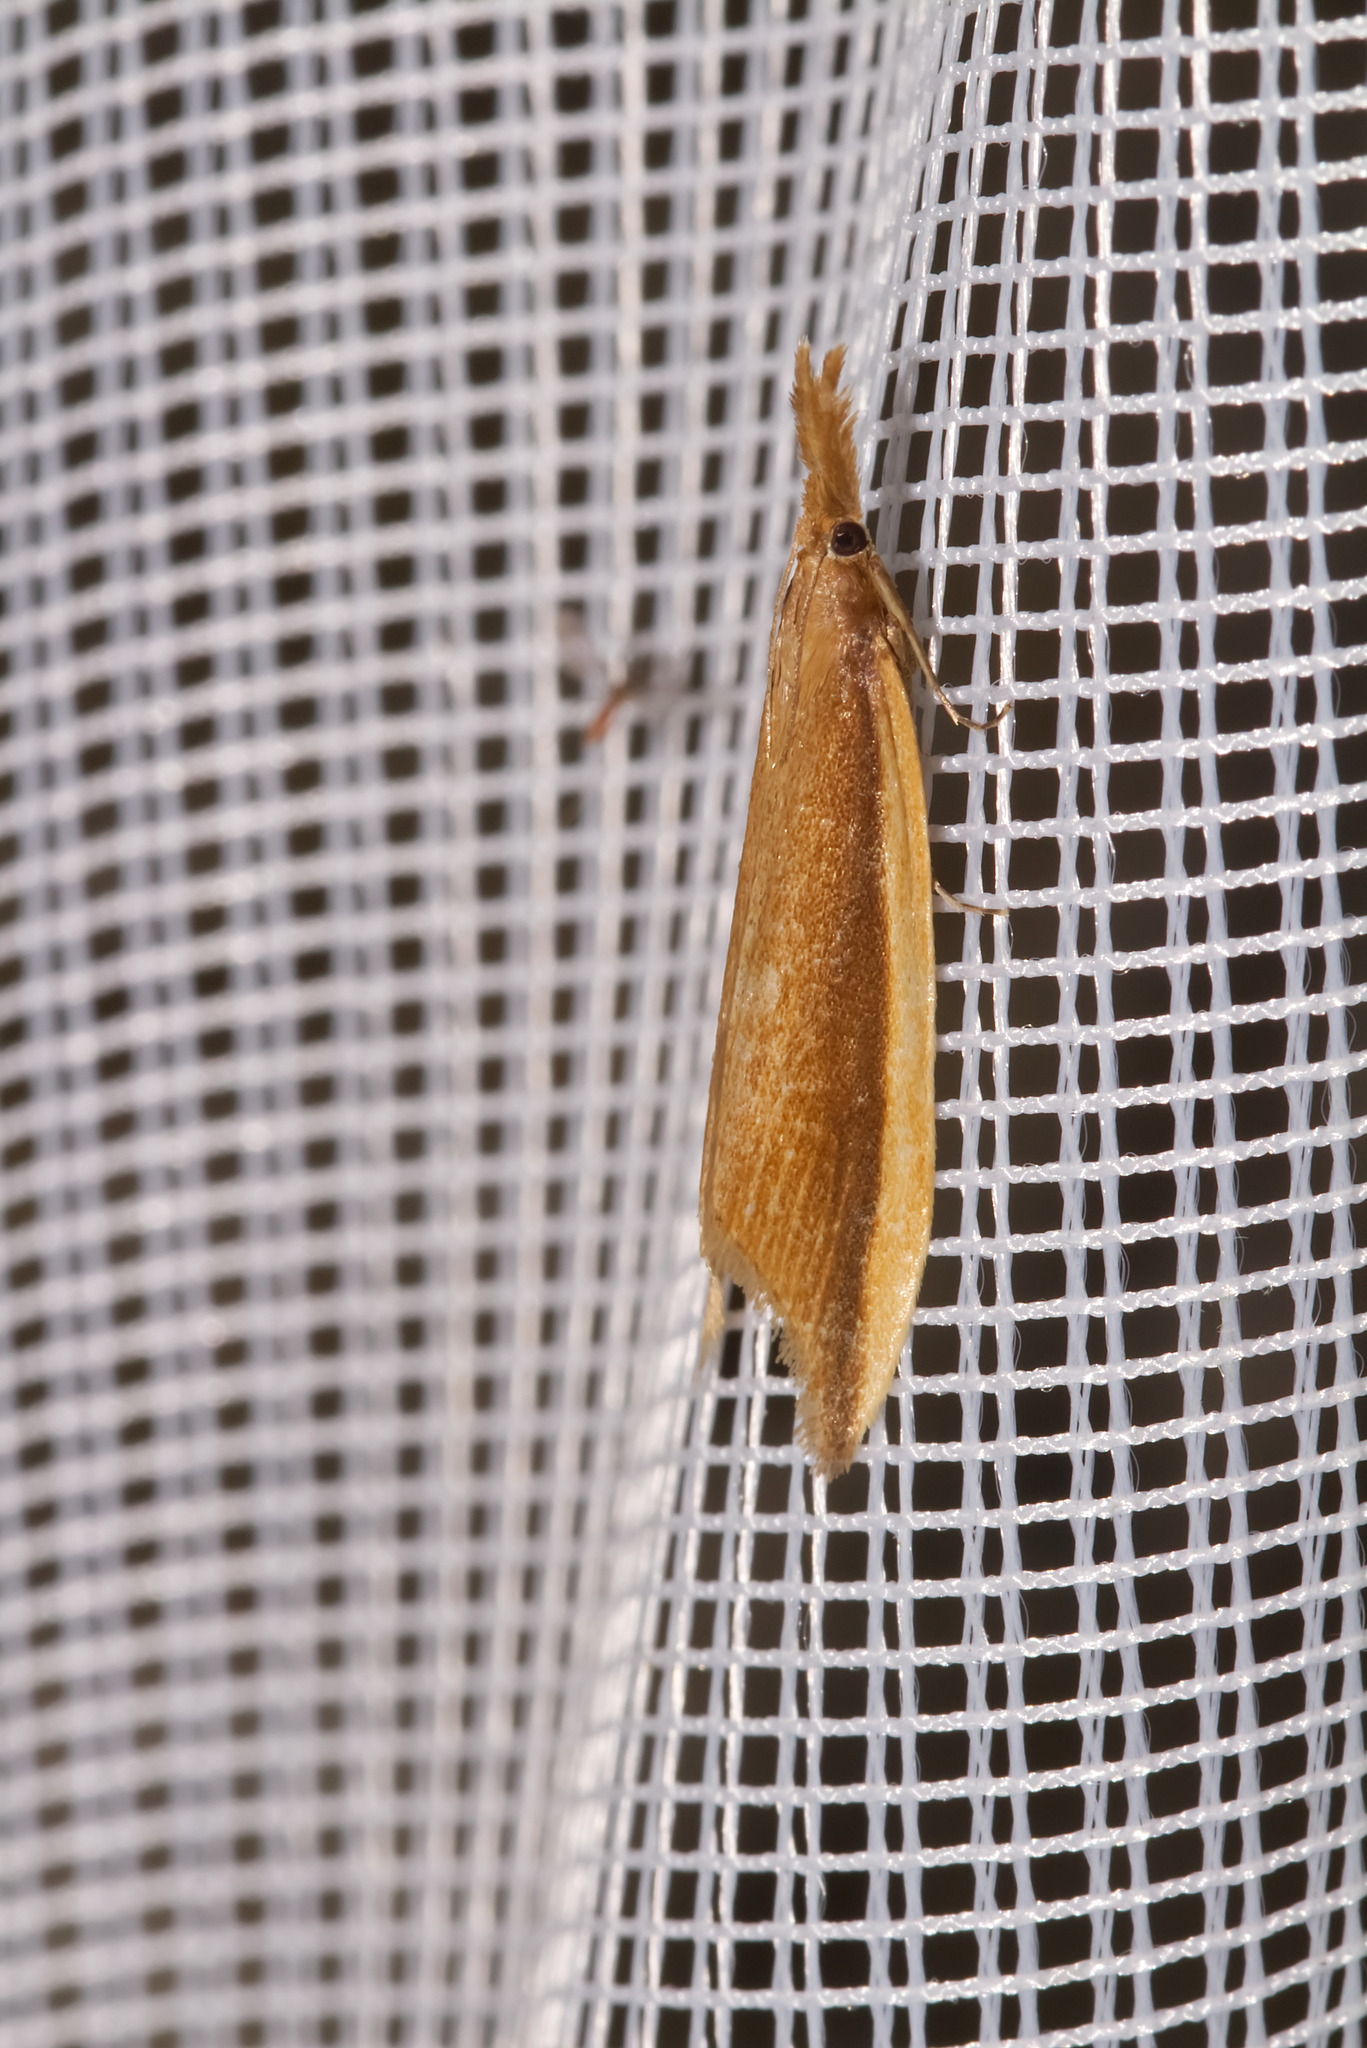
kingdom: Animalia
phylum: Arthropoda
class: Insecta
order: Lepidoptera
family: Crambidae
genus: Donacaula
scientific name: Donacaula mucronella
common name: Scarce water-veneer
